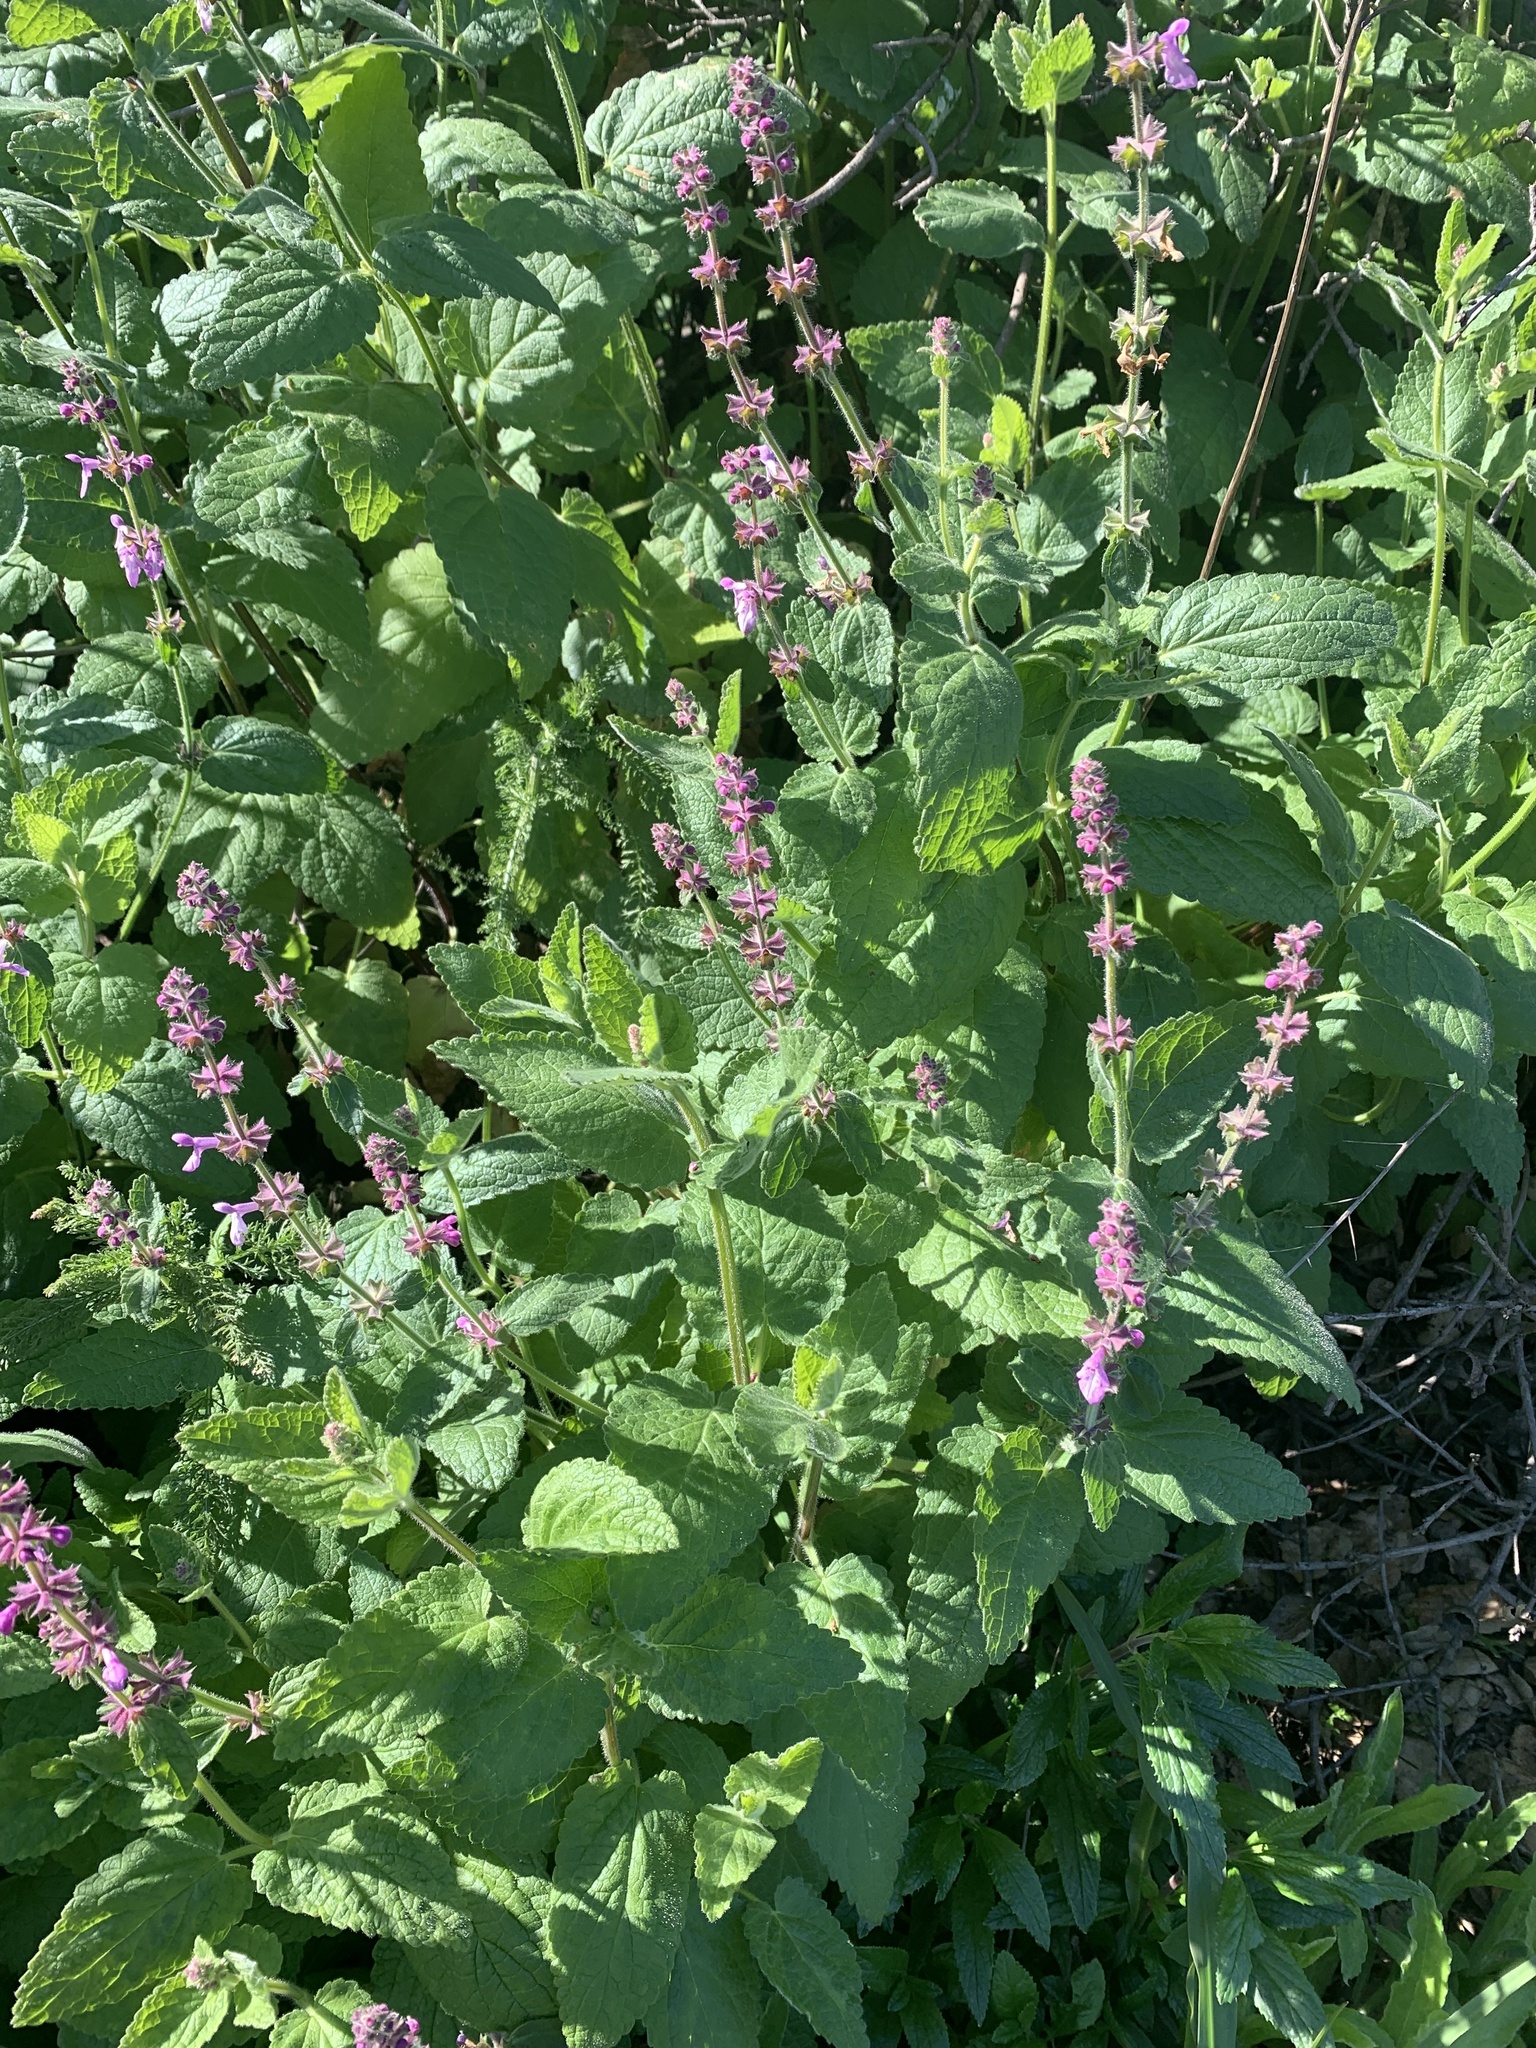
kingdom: Plantae
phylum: Tracheophyta
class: Magnoliopsida
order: Lamiales
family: Lamiaceae
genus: Stachys
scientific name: Stachys bullata
